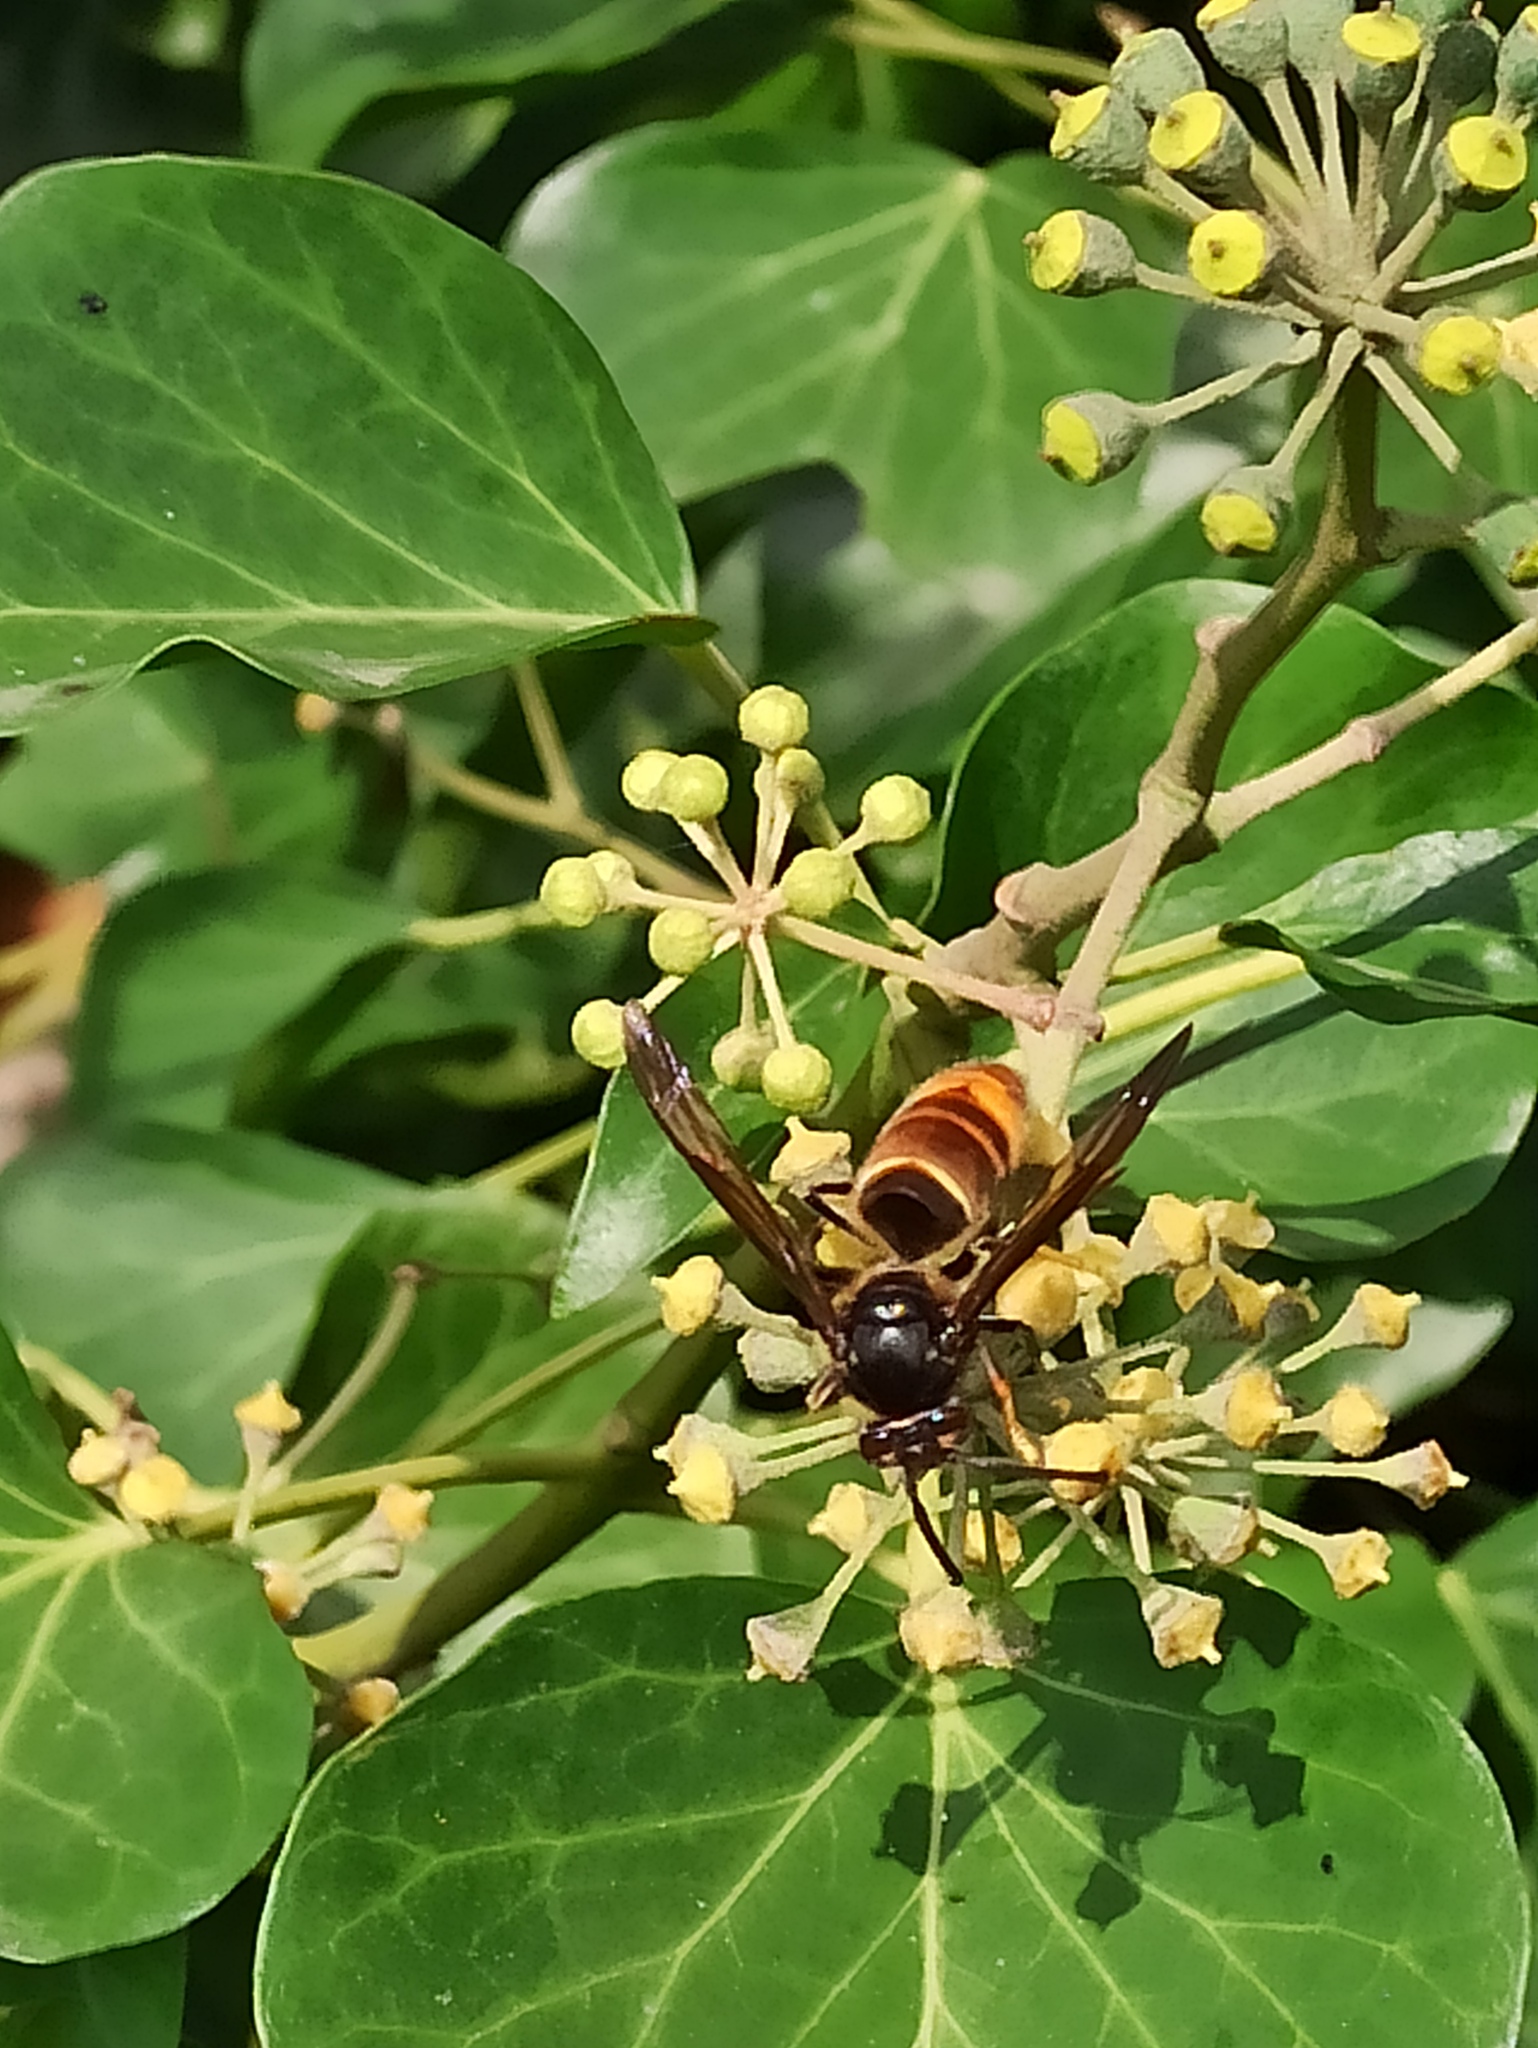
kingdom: Animalia
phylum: Arthropoda
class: Insecta
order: Hymenoptera
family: Vespidae
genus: Vespa
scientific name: Vespa velutina
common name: Asian hornet
